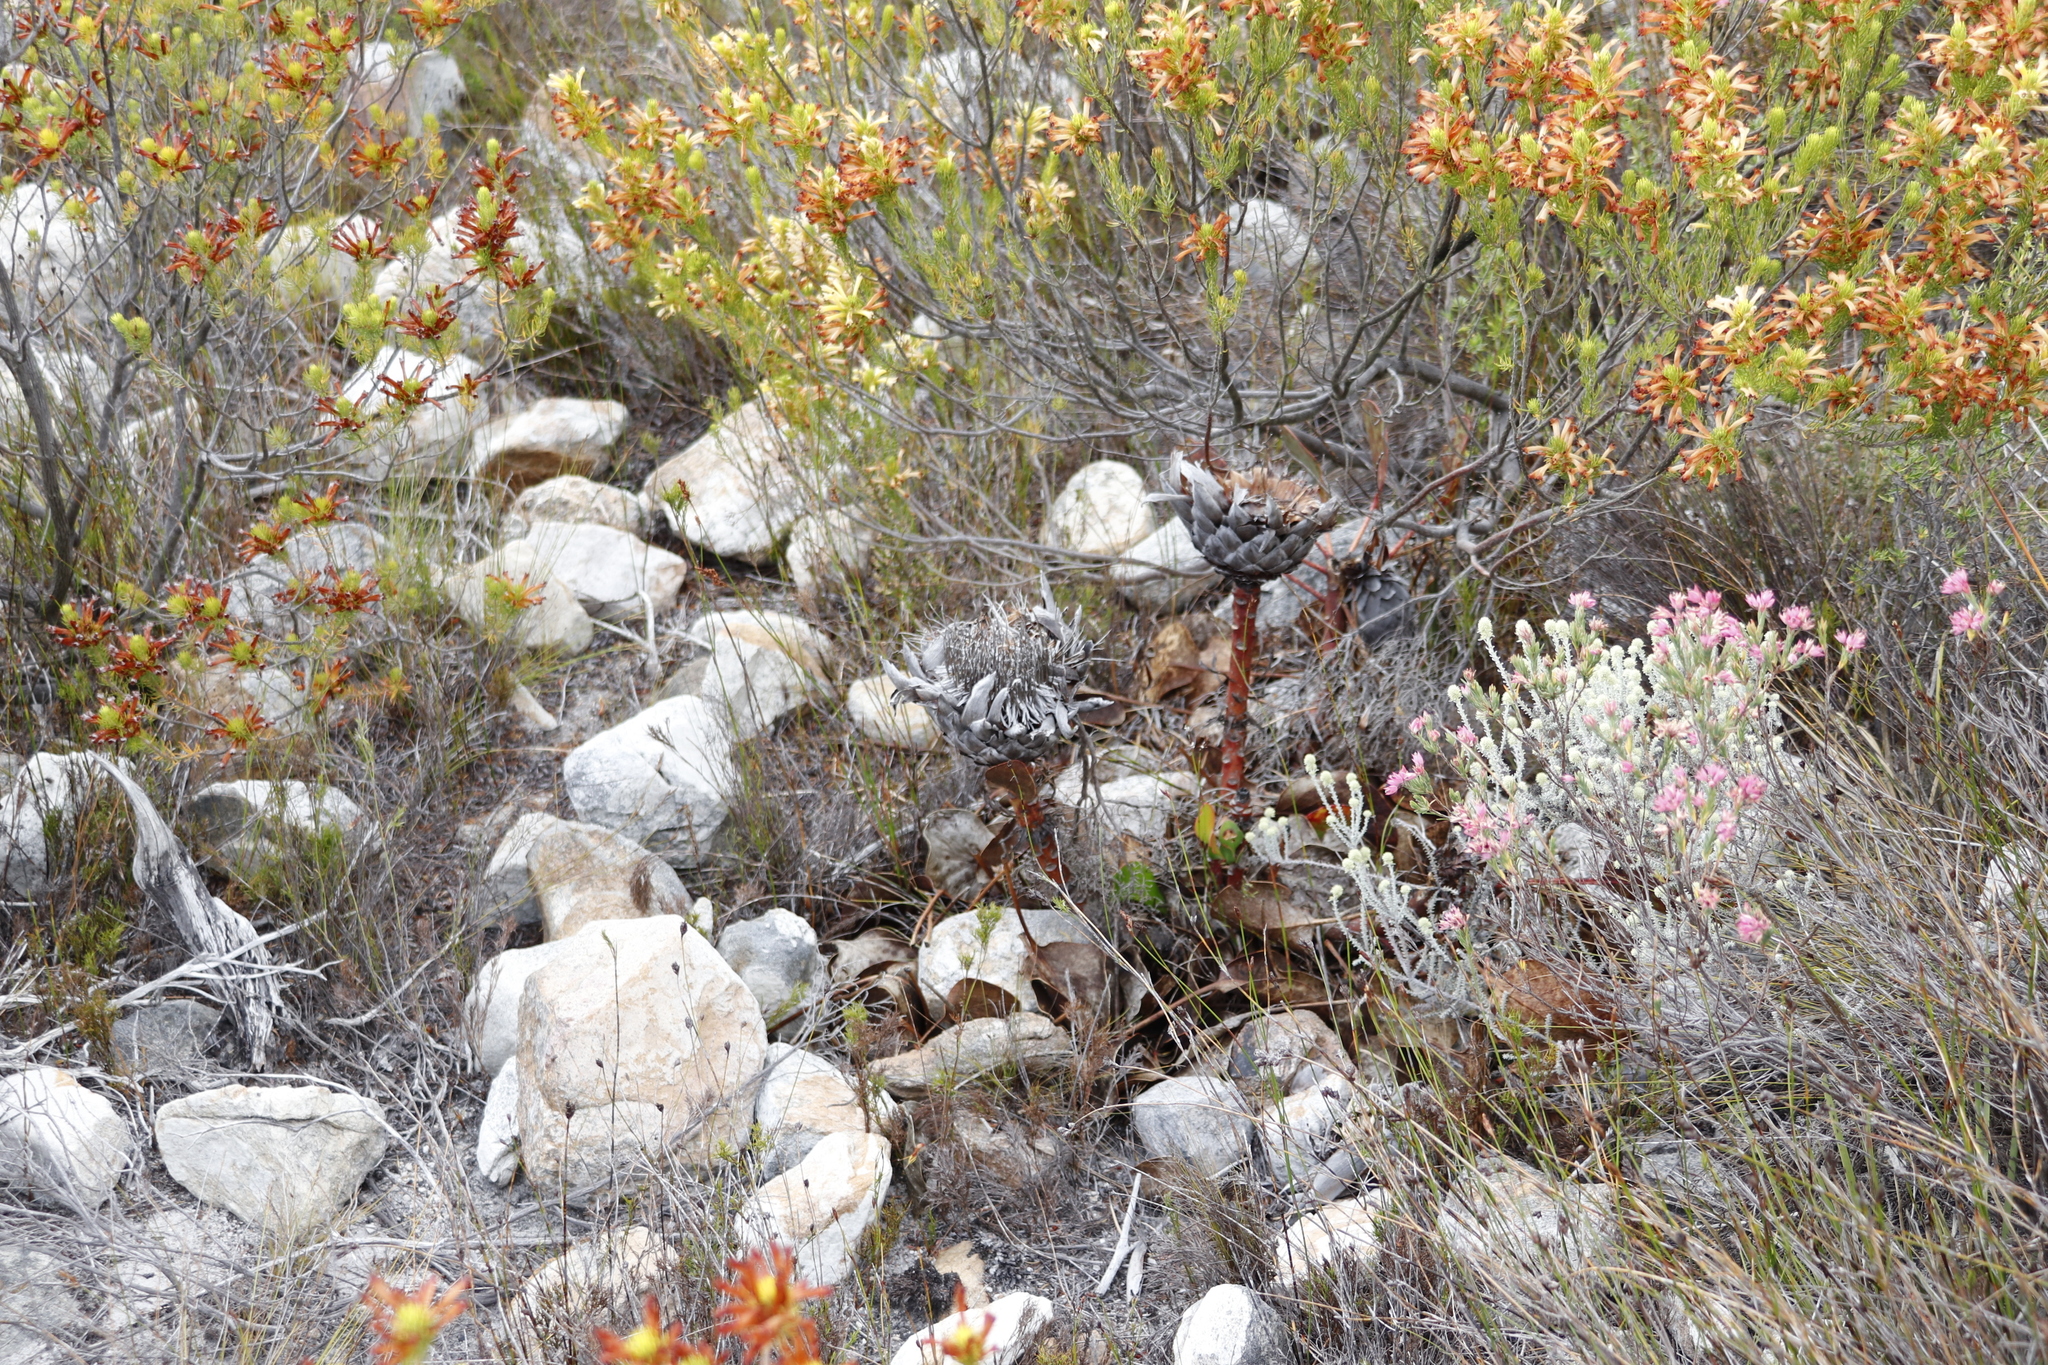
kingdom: Plantae
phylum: Tracheophyta
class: Magnoliopsida
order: Proteales
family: Proteaceae
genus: Protea
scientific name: Protea cynaroides
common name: King protea
